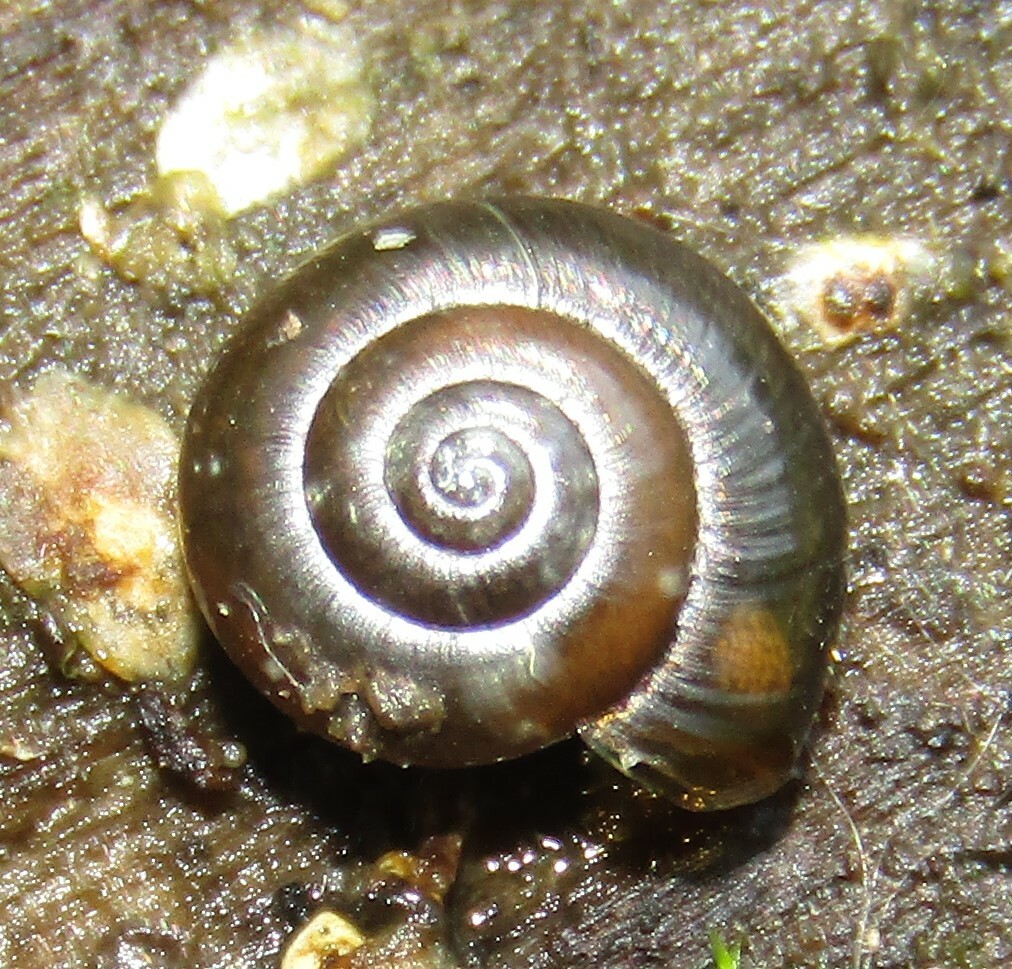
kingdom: Animalia
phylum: Mollusca
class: Gastropoda
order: Stylommatophora
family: Gastrodontidae
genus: Zonitoides
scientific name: Zonitoides nitidus
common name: Shiny glass snail
